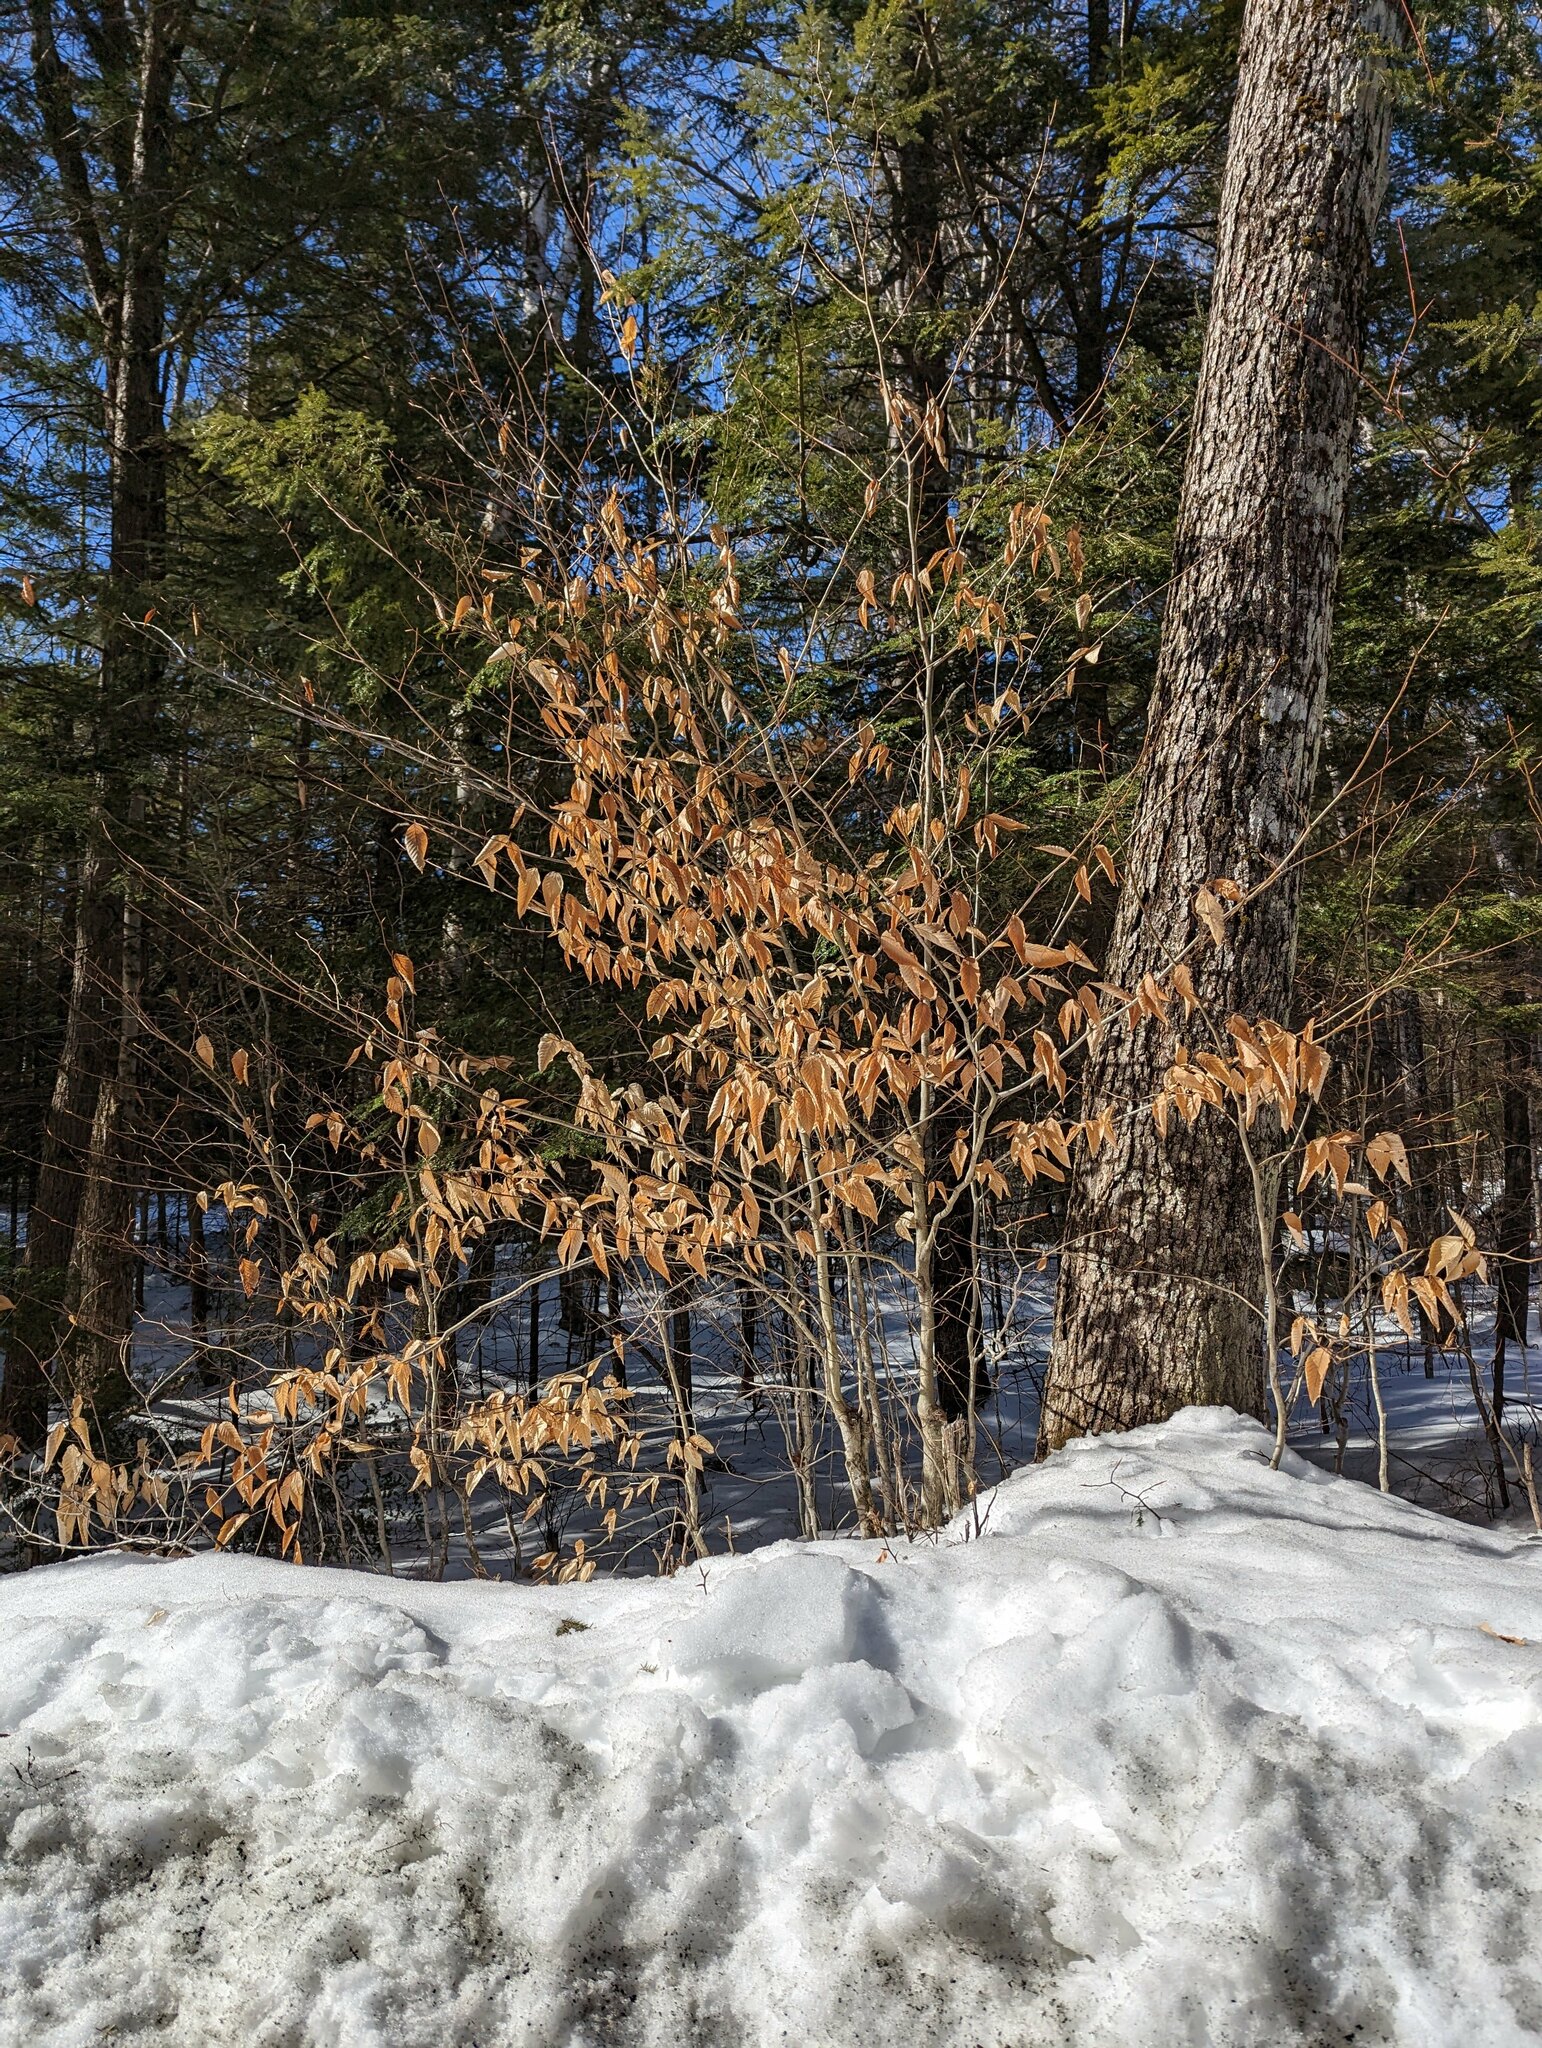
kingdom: Plantae
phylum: Tracheophyta
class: Magnoliopsida
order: Fagales
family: Fagaceae
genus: Fagus
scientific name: Fagus grandifolia
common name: American beech
